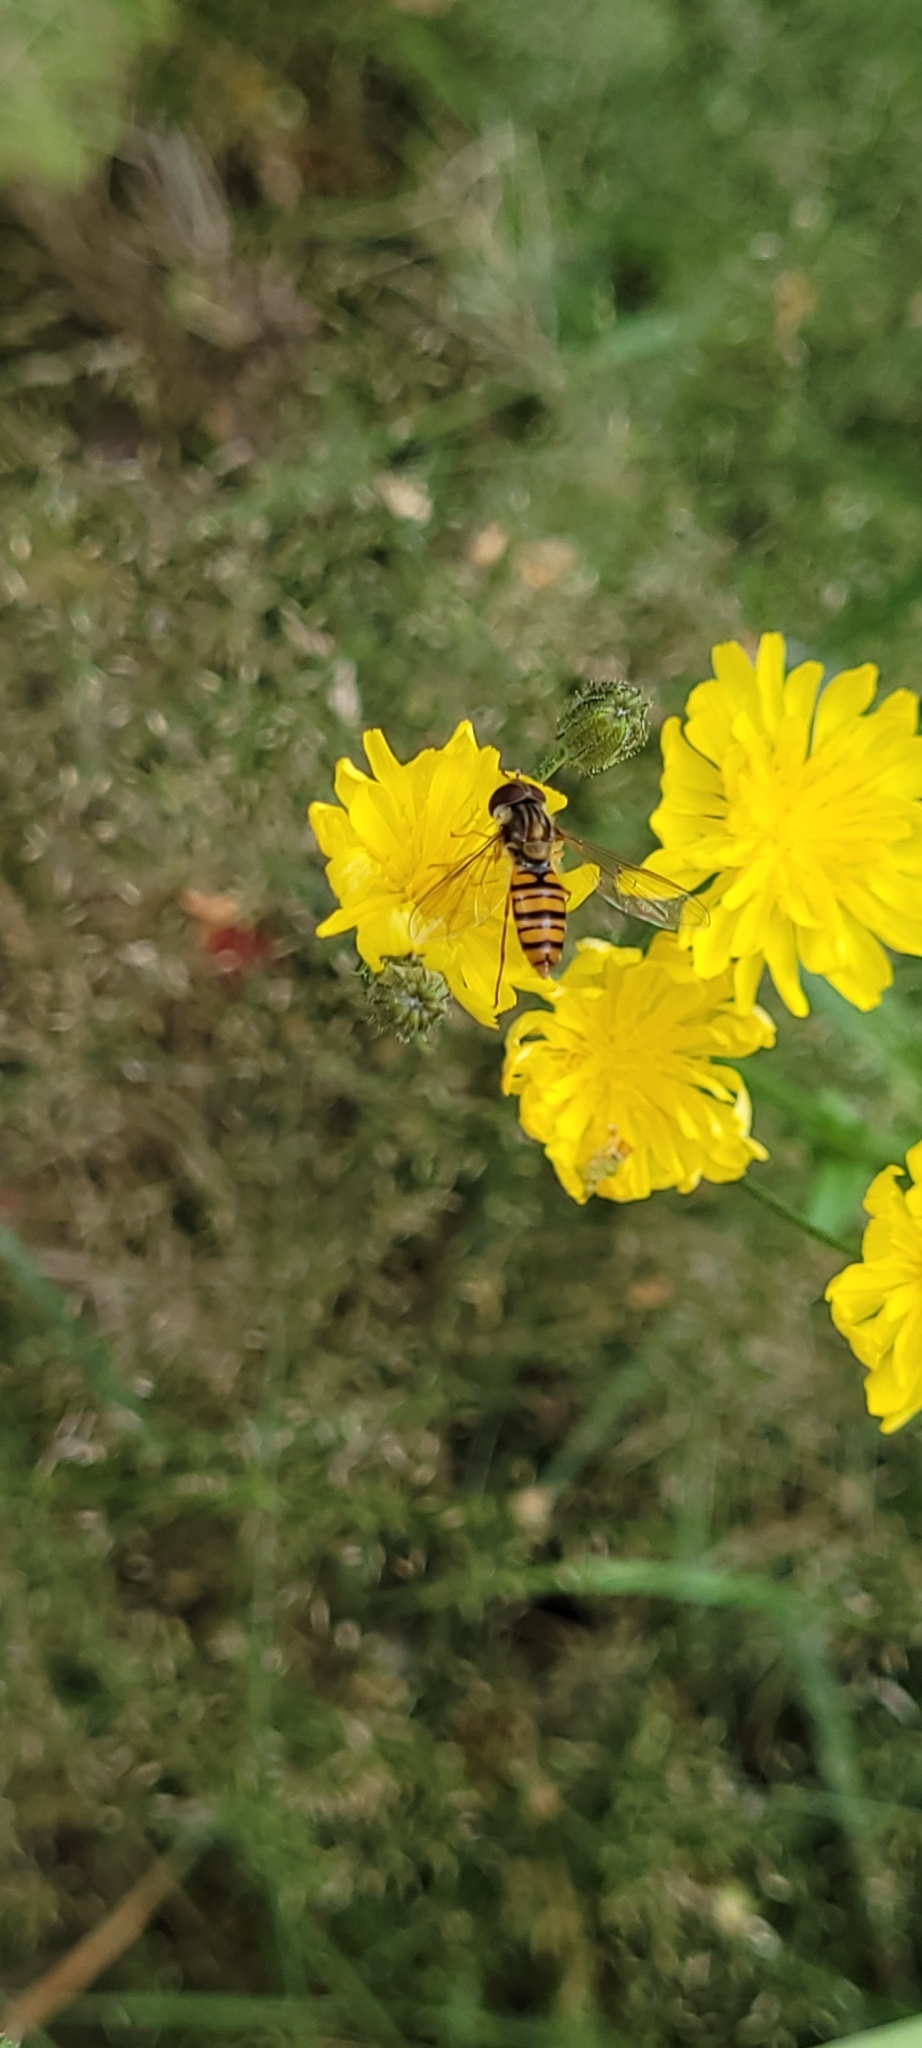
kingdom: Animalia
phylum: Arthropoda
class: Insecta
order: Diptera
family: Syrphidae
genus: Episyrphus
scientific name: Episyrphus balteatus
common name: Marmalade hoverfly
